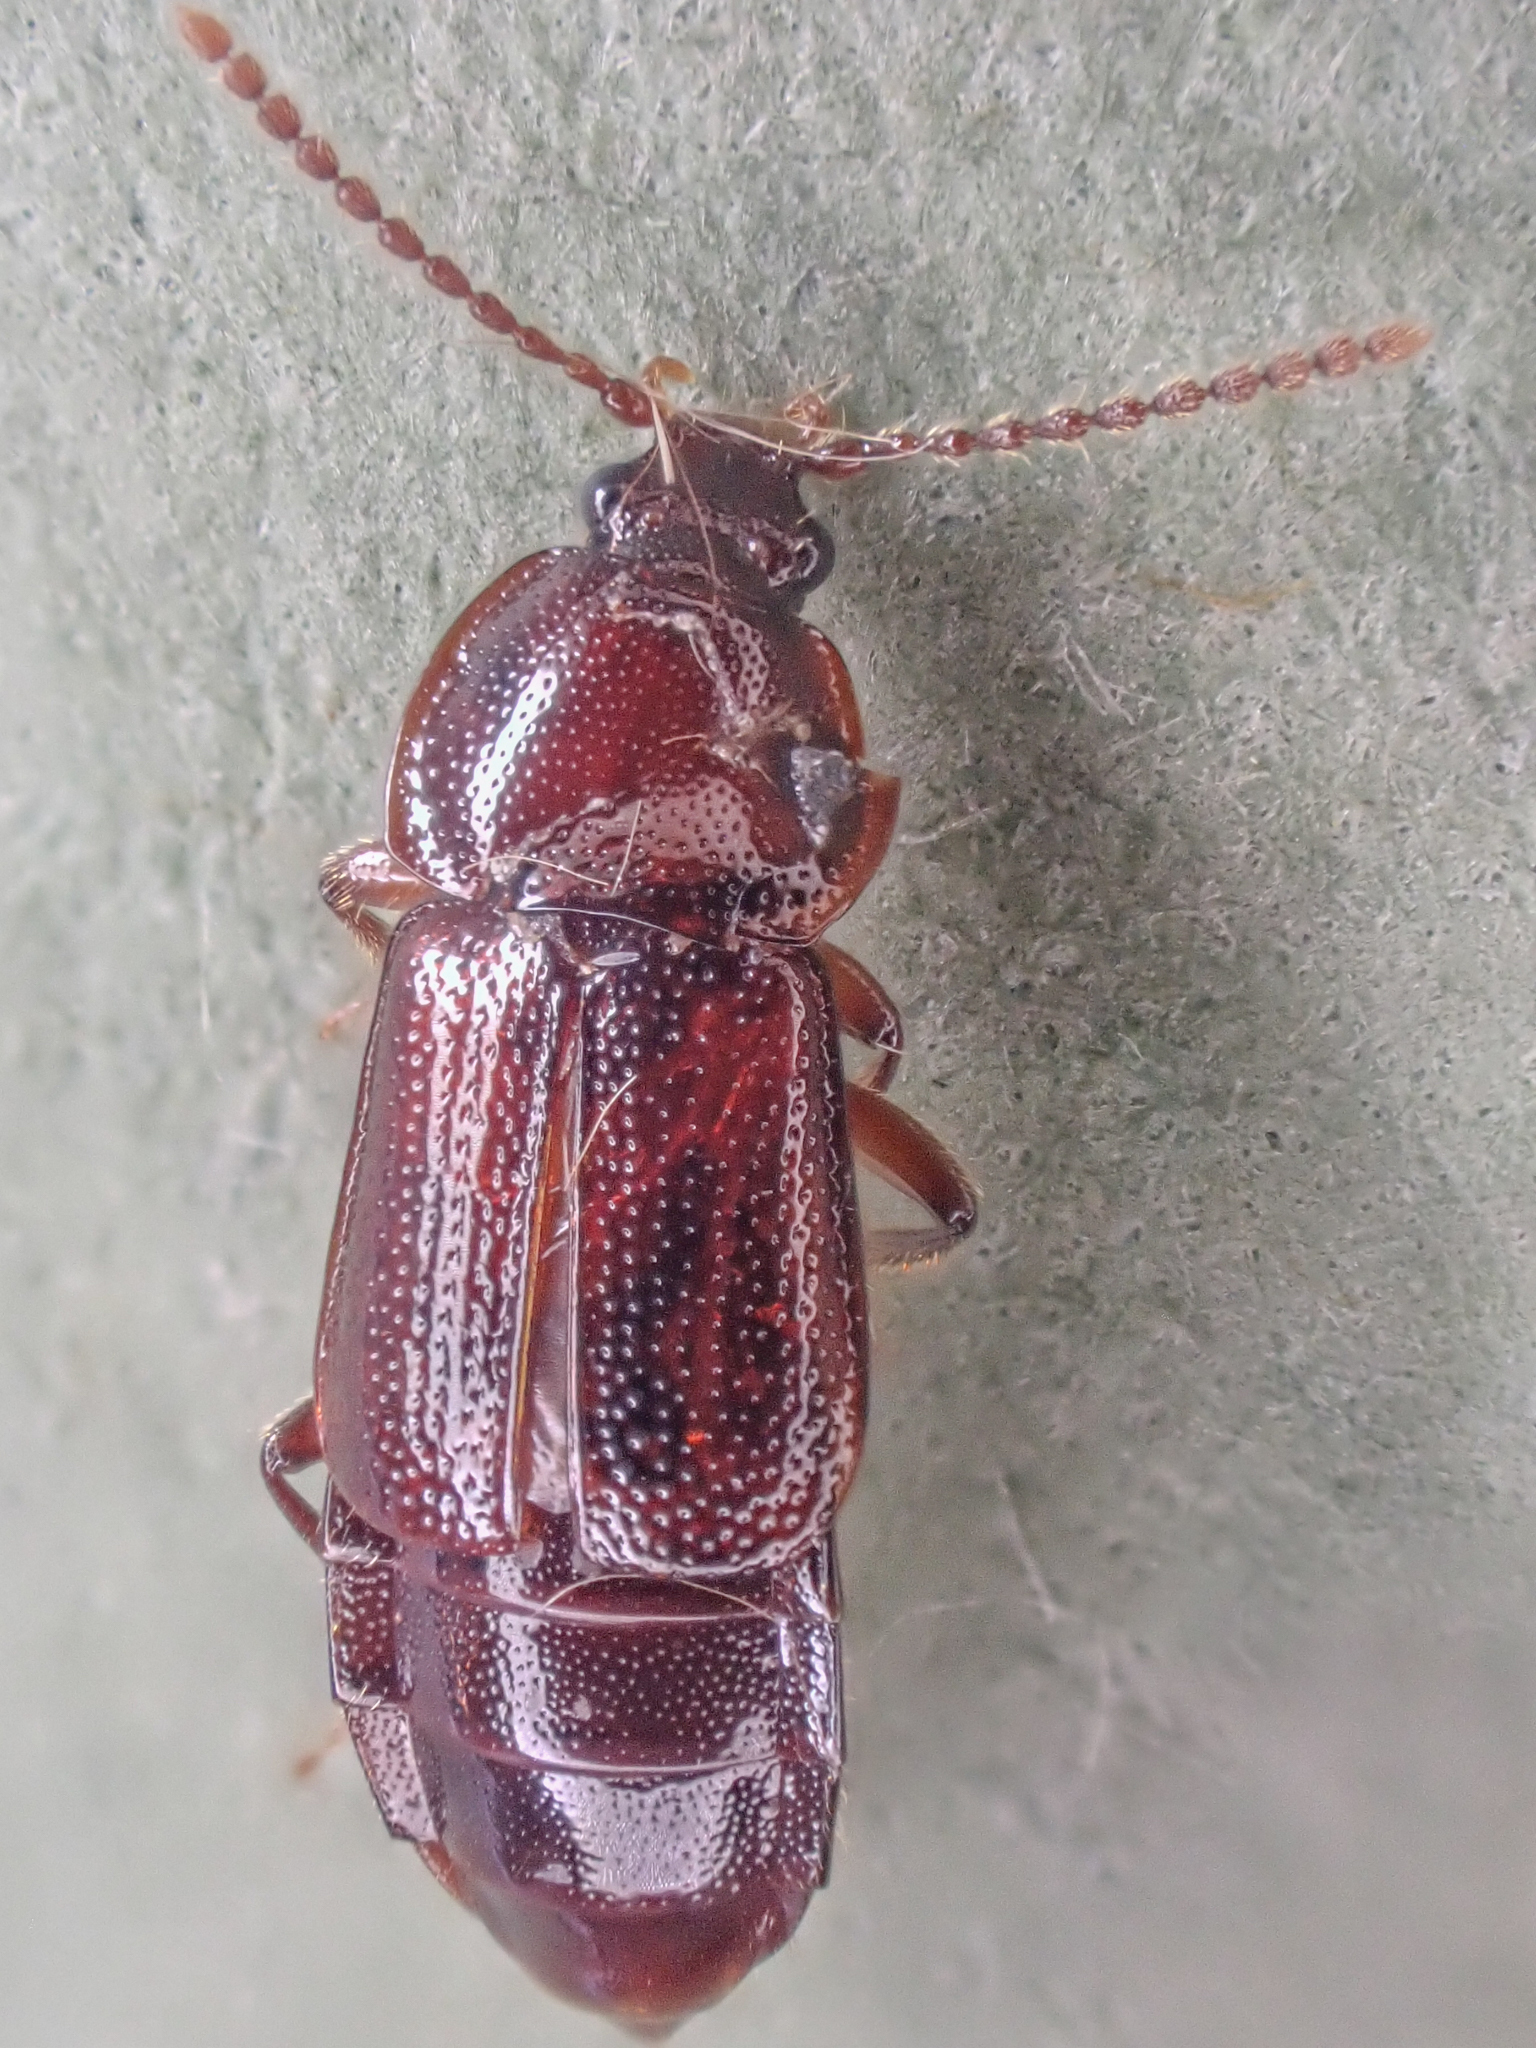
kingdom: Animalia
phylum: Arthropoda
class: Insecta
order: Coleoptera
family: Staphylinidae
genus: Acidota
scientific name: Acidota crenata
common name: Staph beetle
